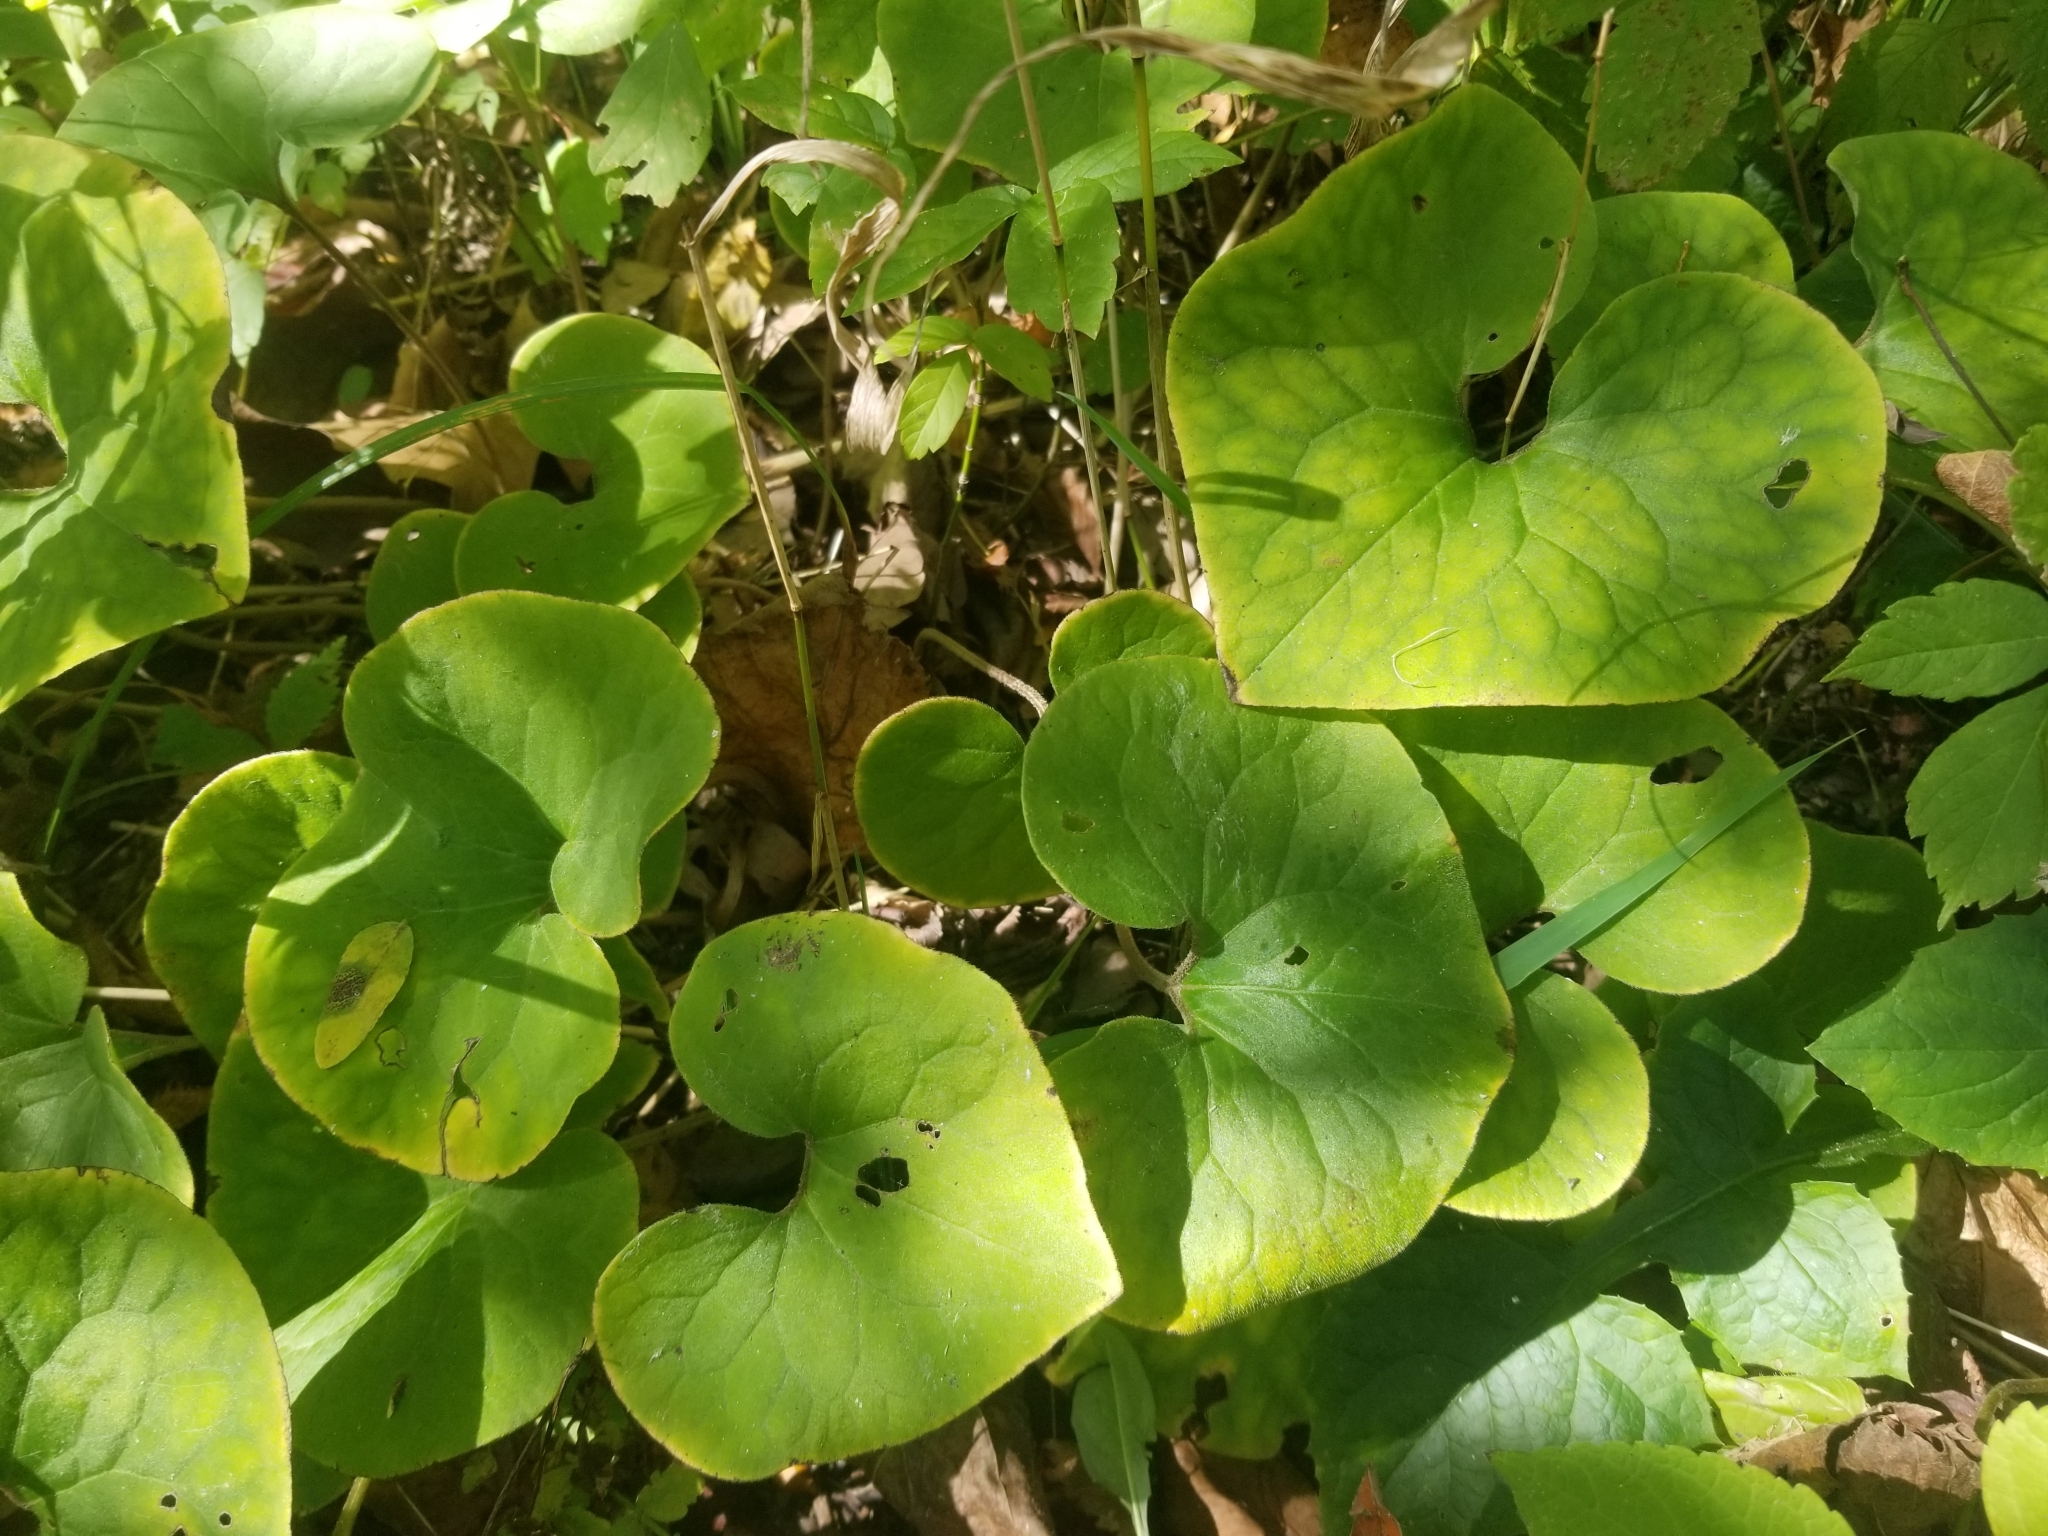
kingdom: Plantae
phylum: Tracheophyta
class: Magnoliopsida
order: Piperales
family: Aristolochiaceae
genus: Asarum
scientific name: Asarum canadense
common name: Wild ginger
